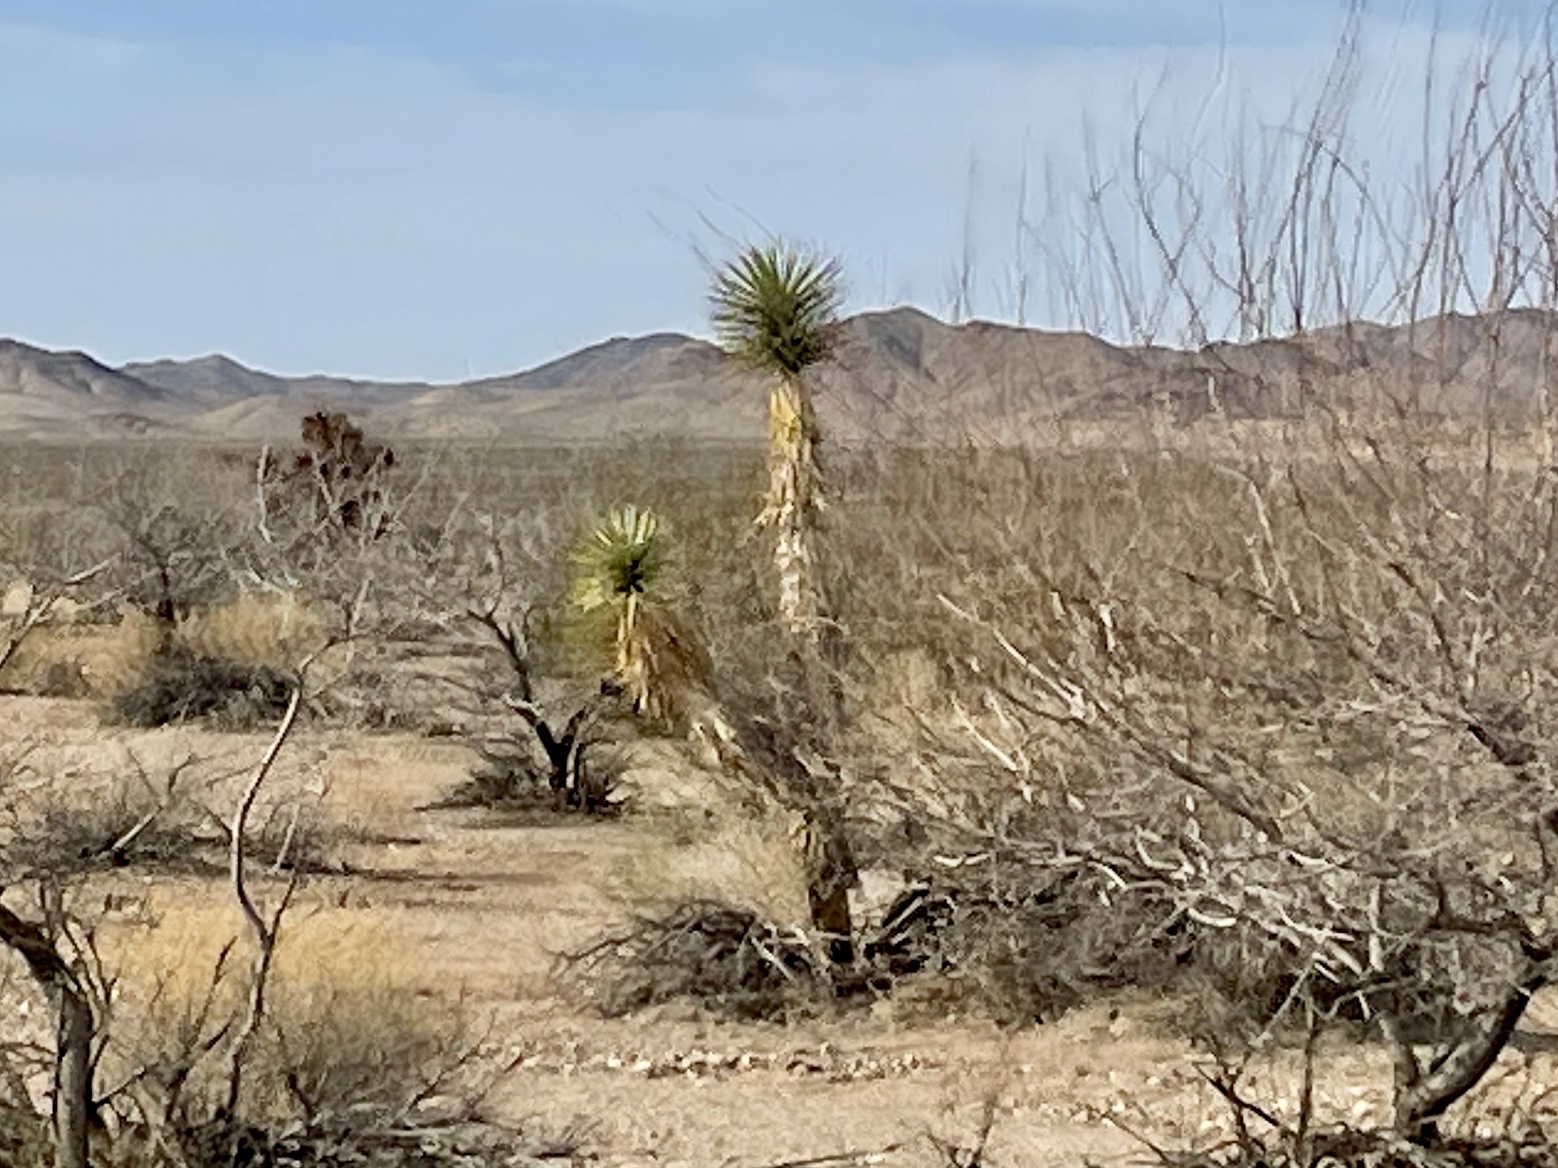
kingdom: Plantae
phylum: Tracheophyta
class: Liliopsida
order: Asparagales
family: Asparagaceae
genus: Yucca
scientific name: Yucca brevifolia
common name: Joshua tree
